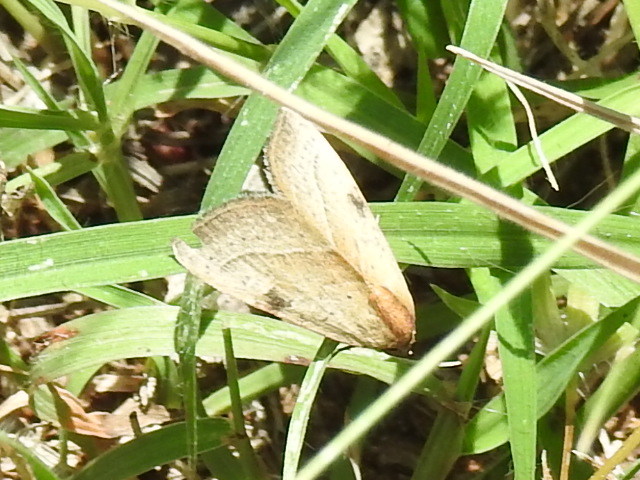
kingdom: Animalia
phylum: Arthropoda
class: Insecta
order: Lepidoptera
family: Noctuidae
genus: Galgula
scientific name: Galgula partita
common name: Wedgeling
